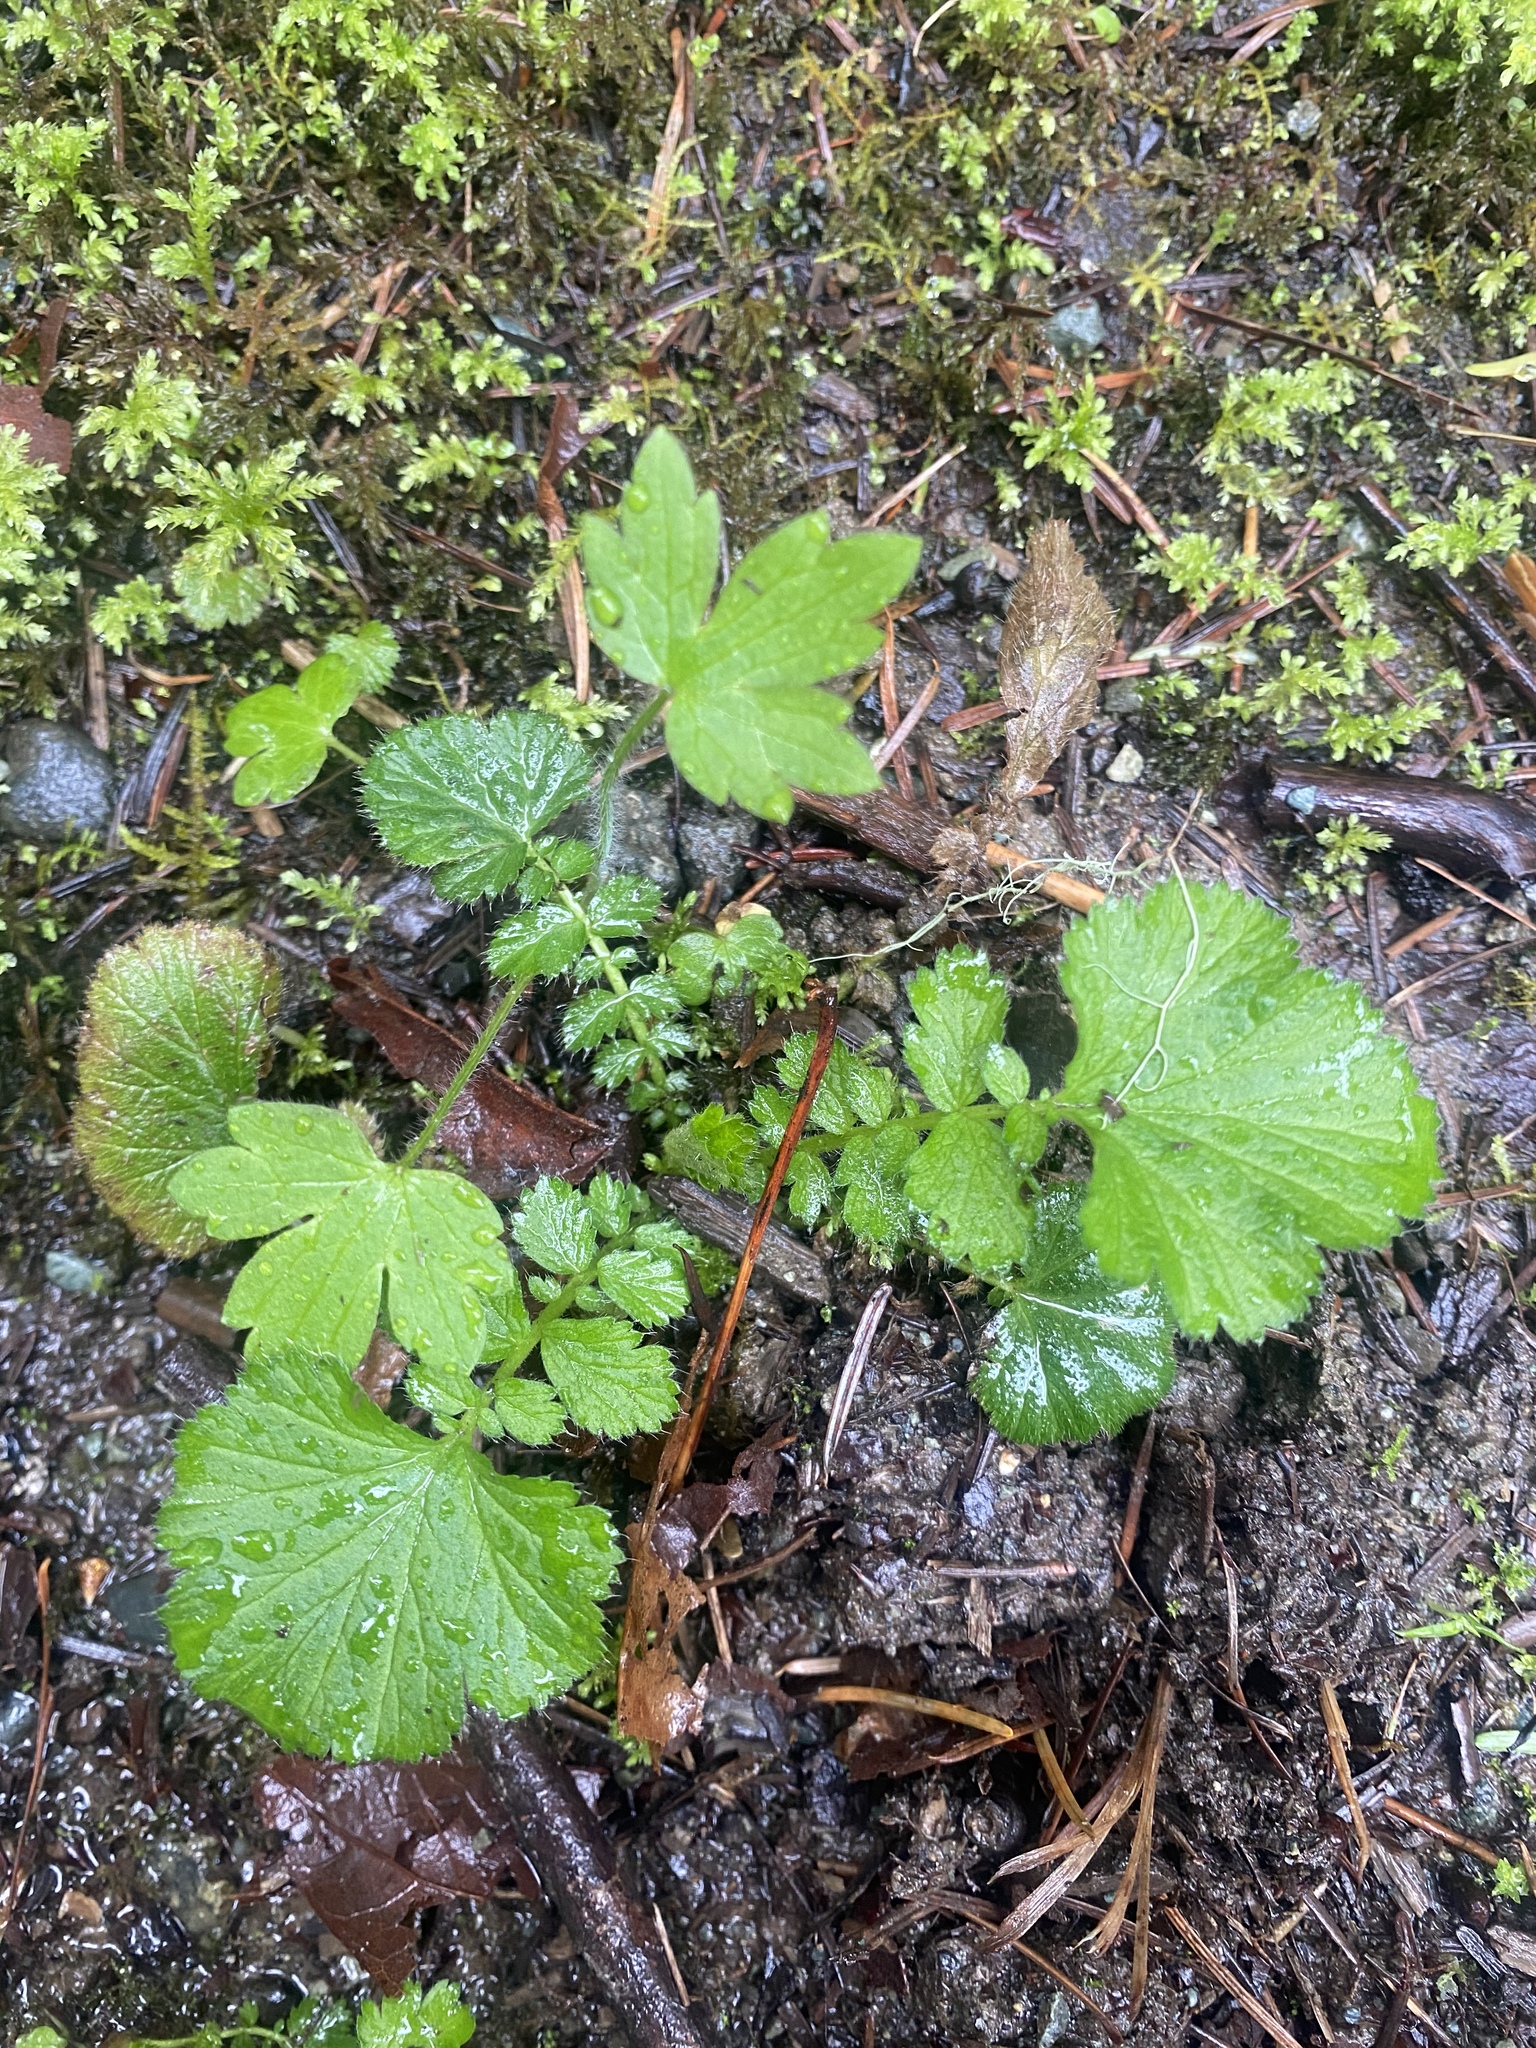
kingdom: Plantae
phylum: Tracheophyta
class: Magnoliopsida
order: Rosales
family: Rosaceae
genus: Geum
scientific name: Geum macrophyllum
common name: Large-leaved avens
